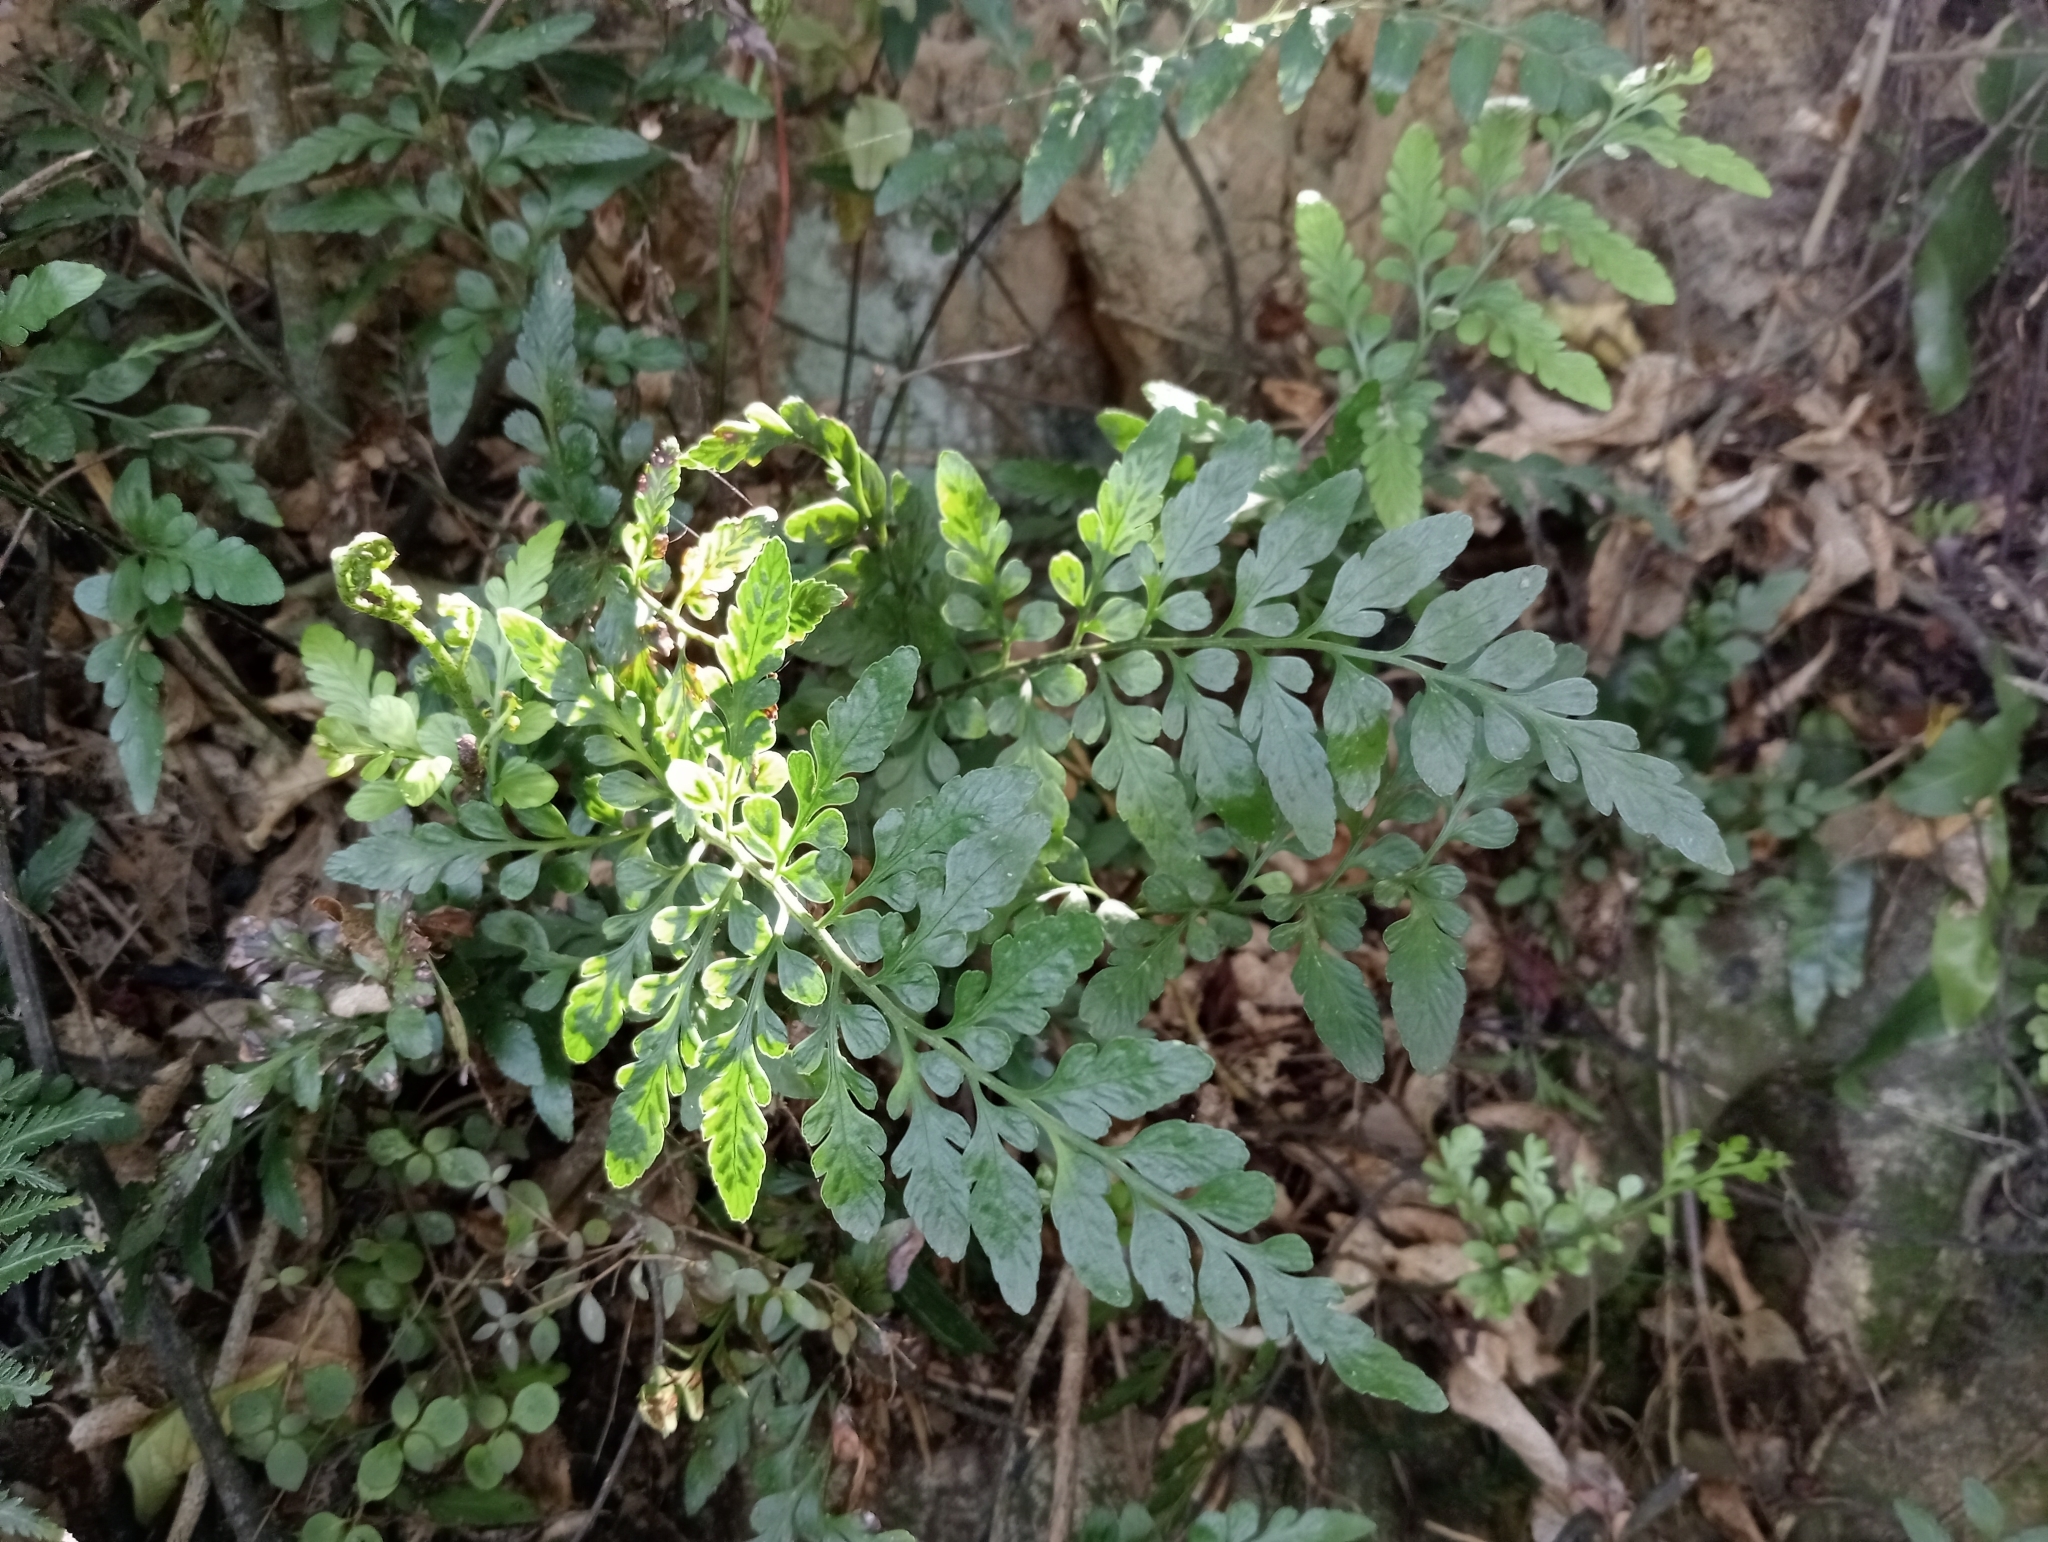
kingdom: Plantae
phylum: Tracheophyta
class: Polypodiopsida
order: Polypodiales
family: Aspleniaceae
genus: Asplenium
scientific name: Asplenium lyallii
